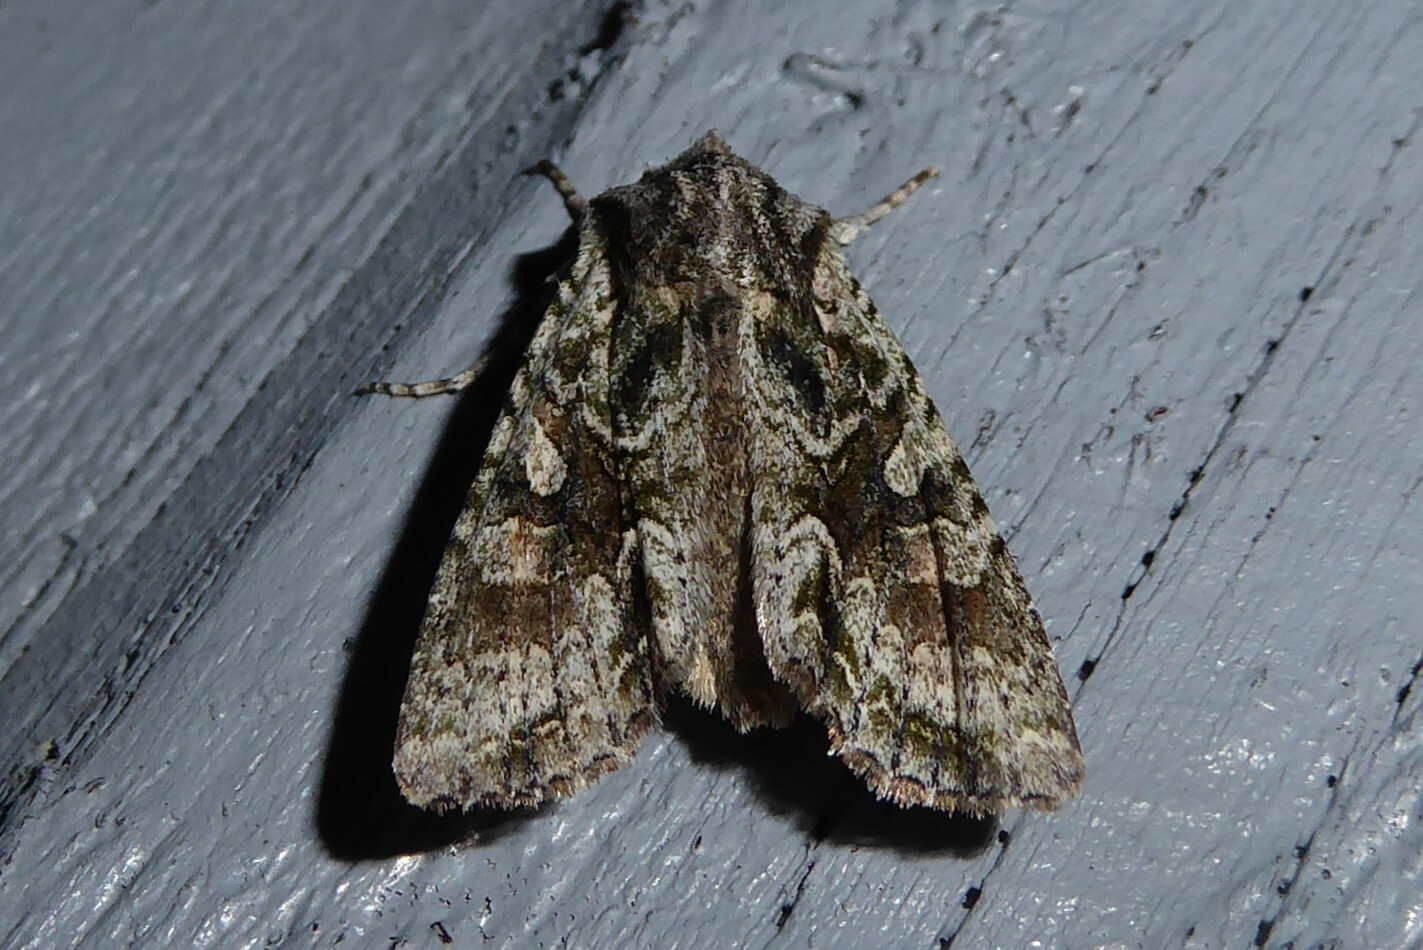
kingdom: Animalia
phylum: Arthropoda
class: Insecta
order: Lepidoptera
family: Noctuidae
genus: Ichneutica
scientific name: Ichneutica mutans
